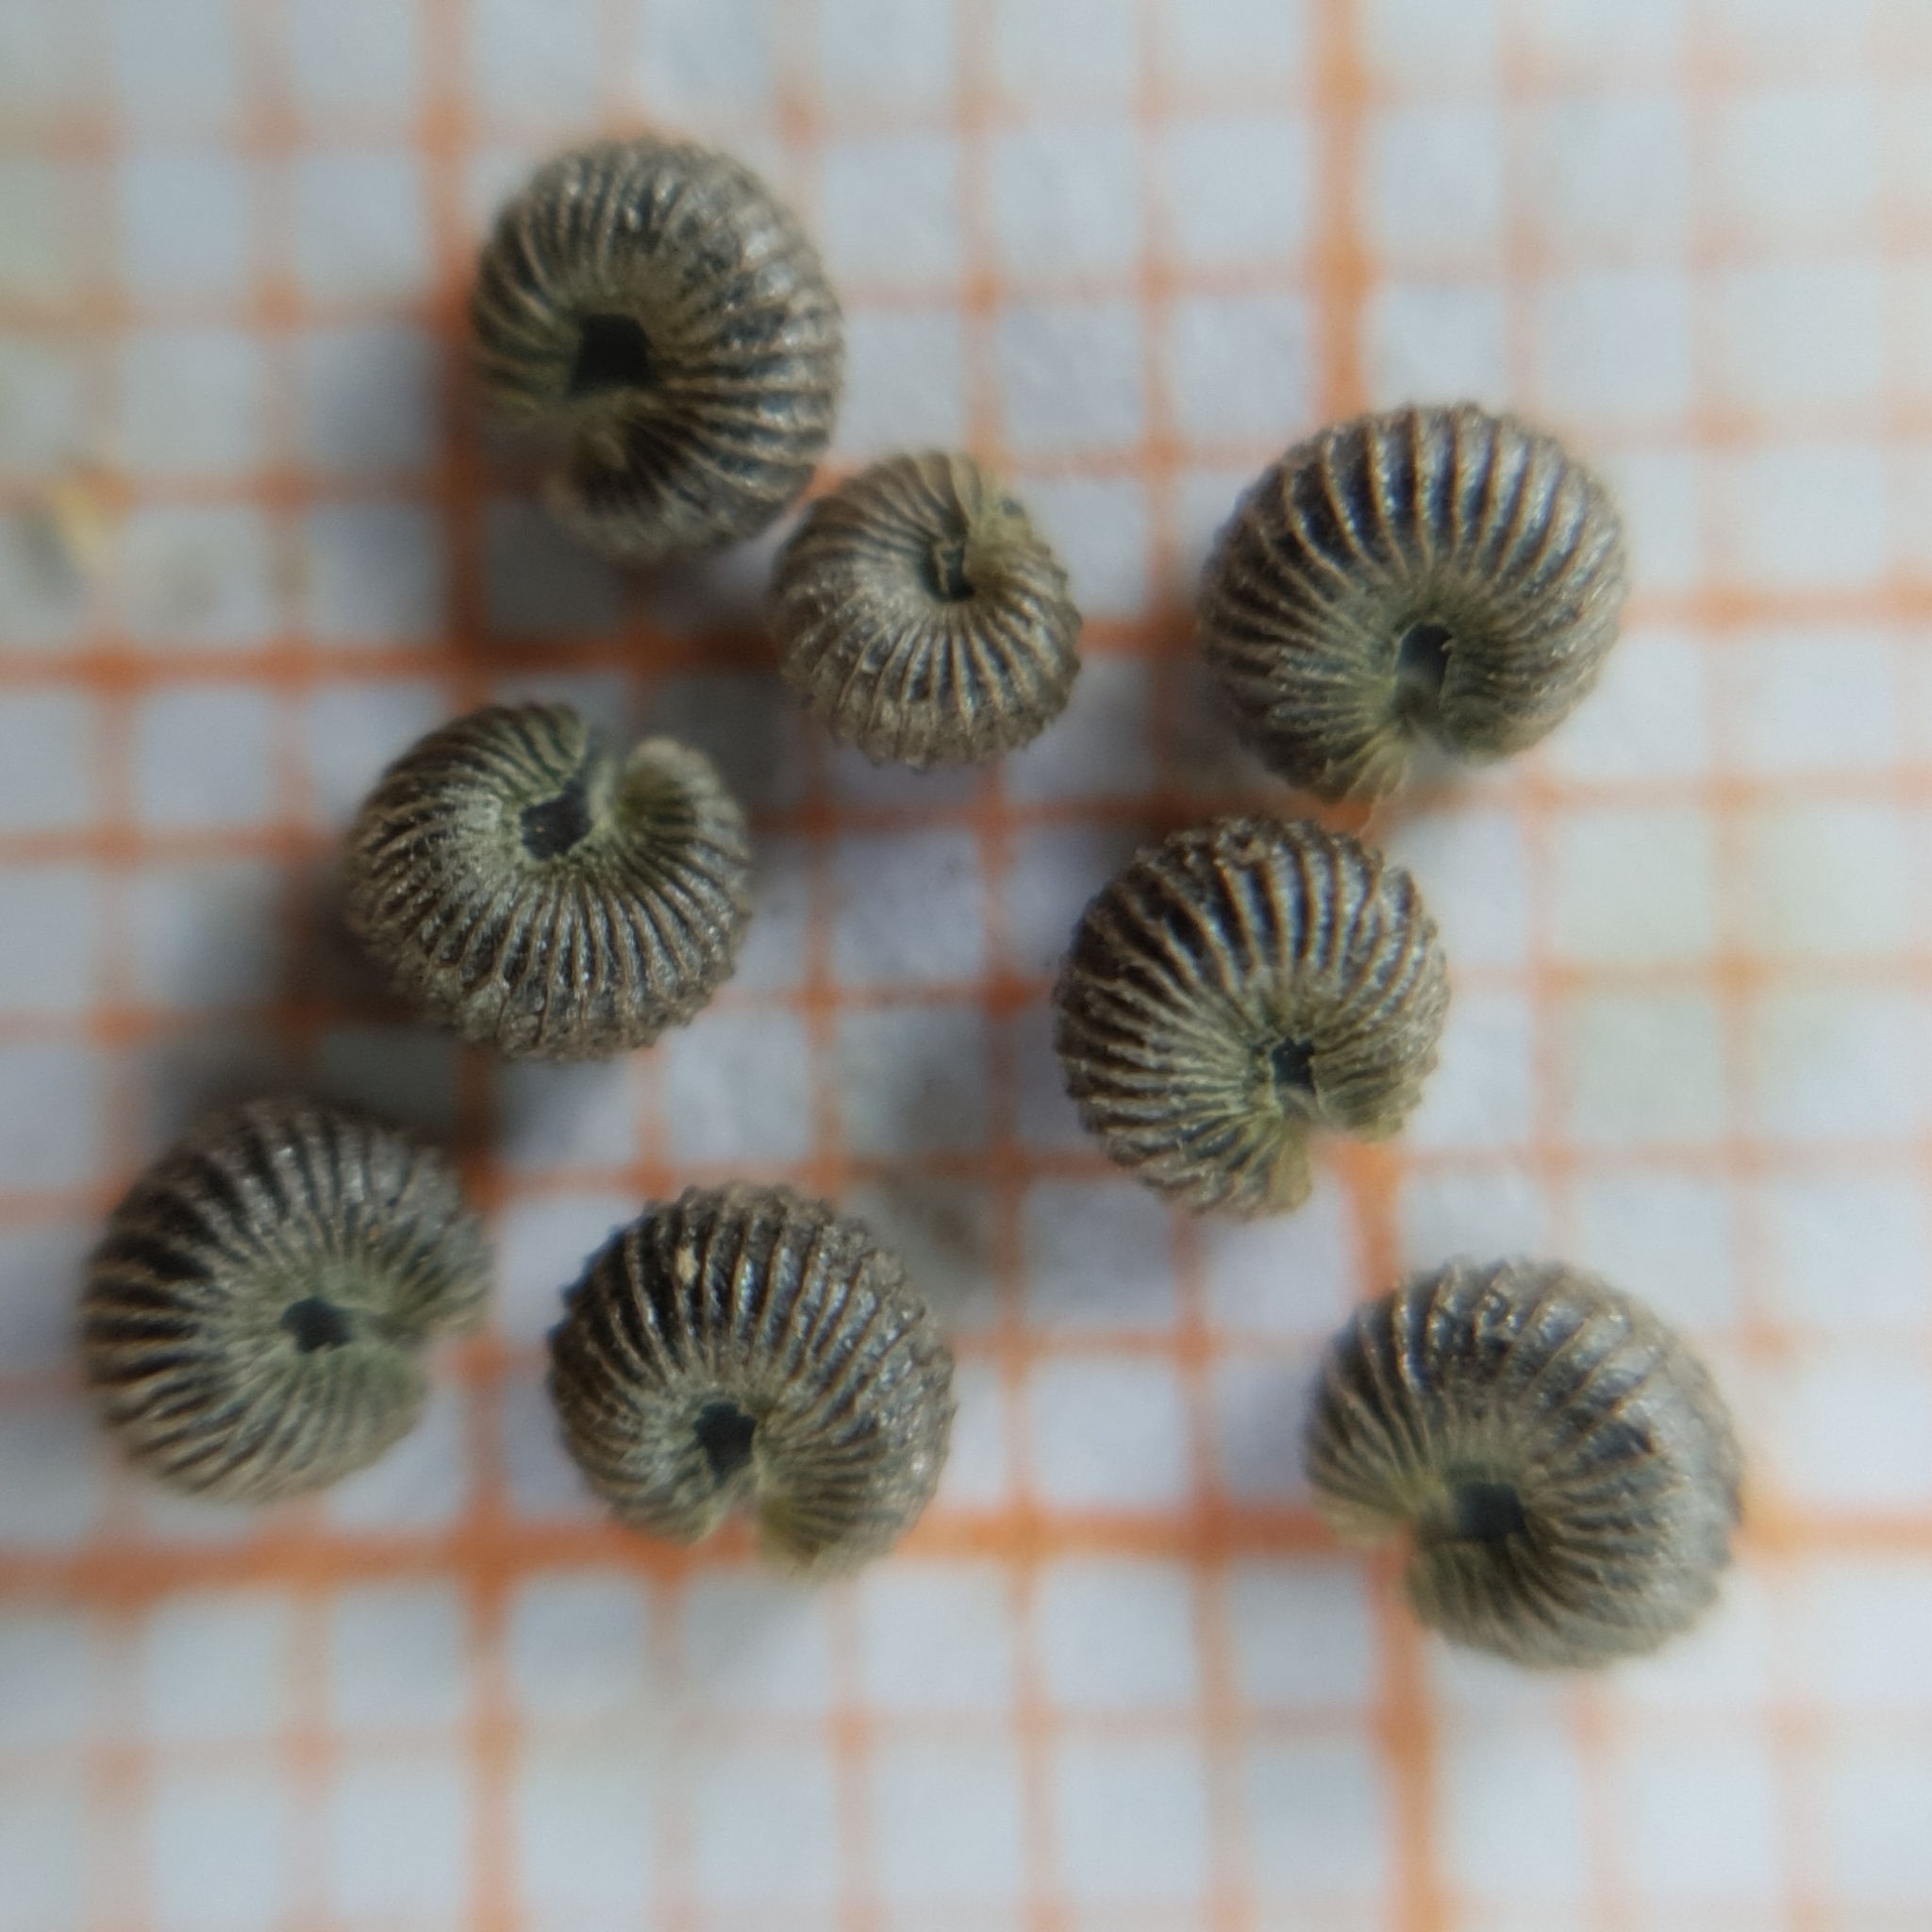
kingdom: Plantae
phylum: Tracheophyta
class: Magnoliopsida
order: Malvales
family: Malvaceae
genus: Malva
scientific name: Malva trimestris
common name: Royal mallow
